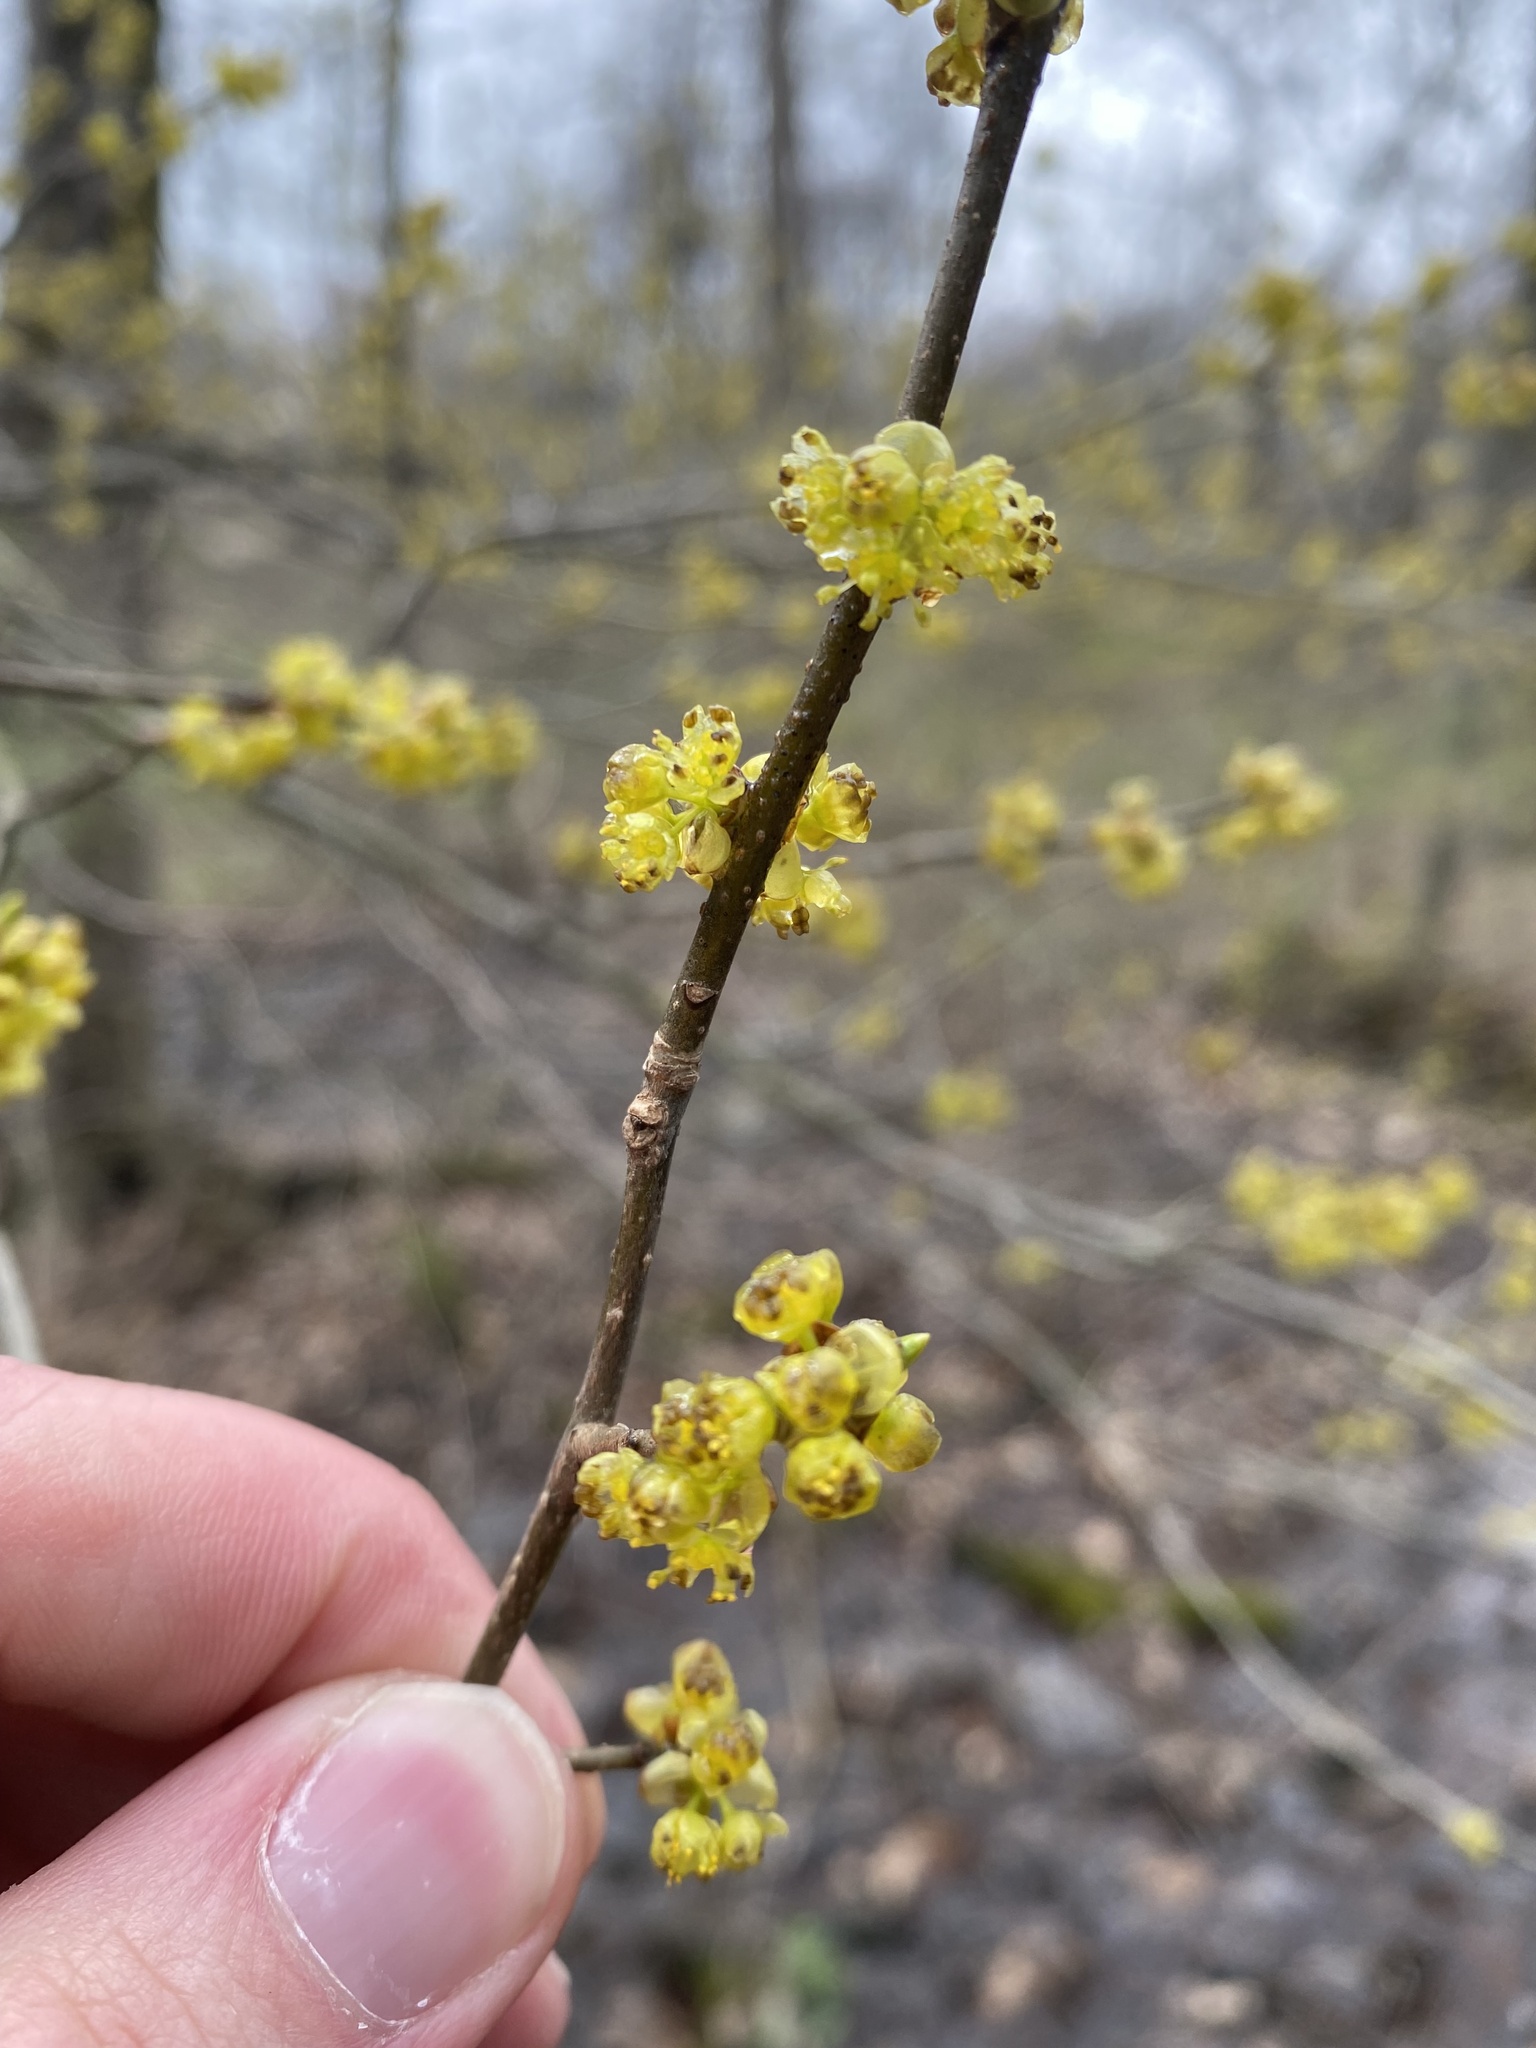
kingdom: Plantae
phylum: Tracheophyta
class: Magnoliopsida
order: Laurales
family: Lauraceae
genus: Lindera
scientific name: Lindera benzoin
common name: Spicebush
